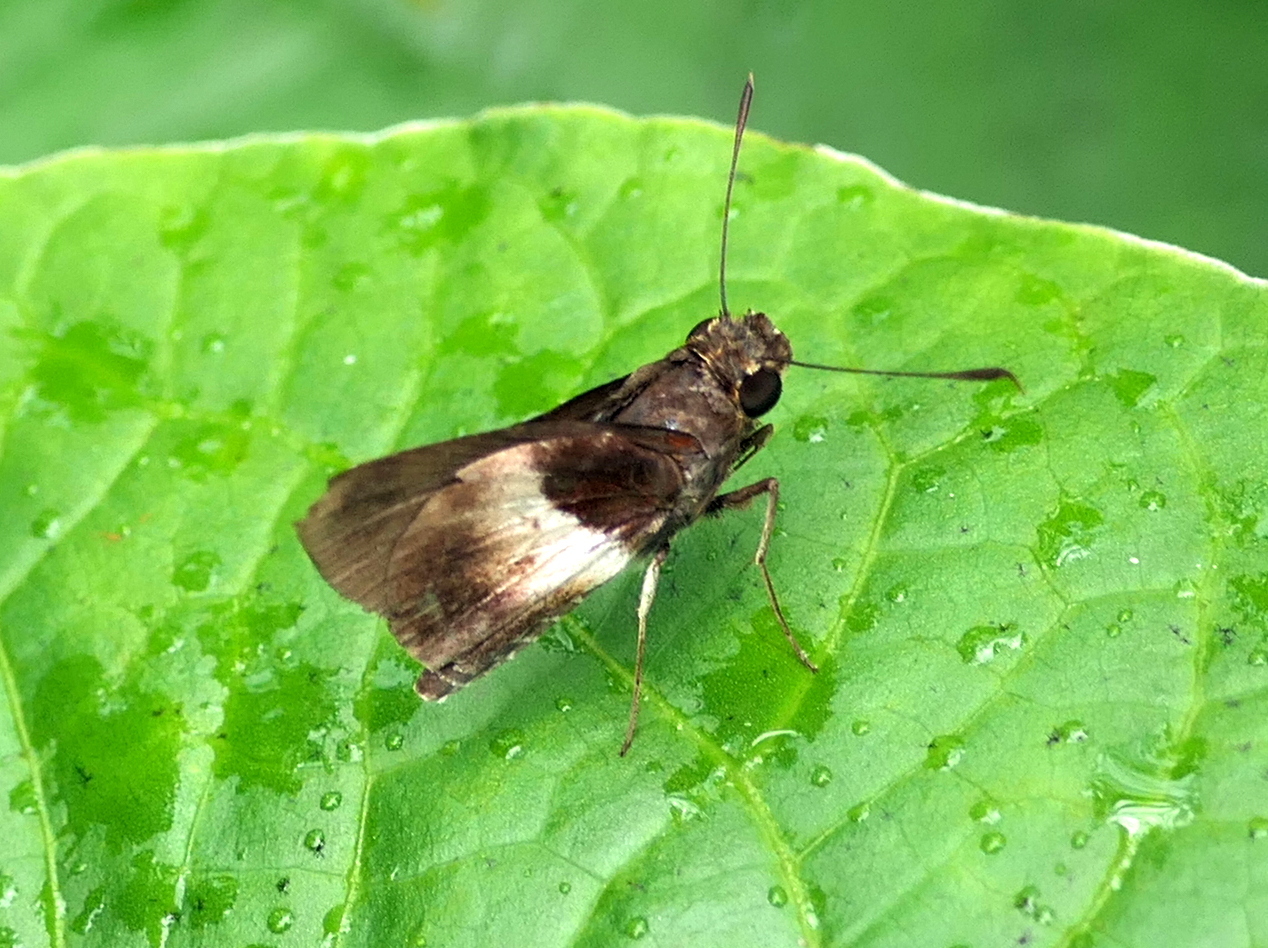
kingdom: Animalia
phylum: Arthropoda
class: Insecta
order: Lepidoptera
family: Hesperiidae
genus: Moeris
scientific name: Moeris remus
